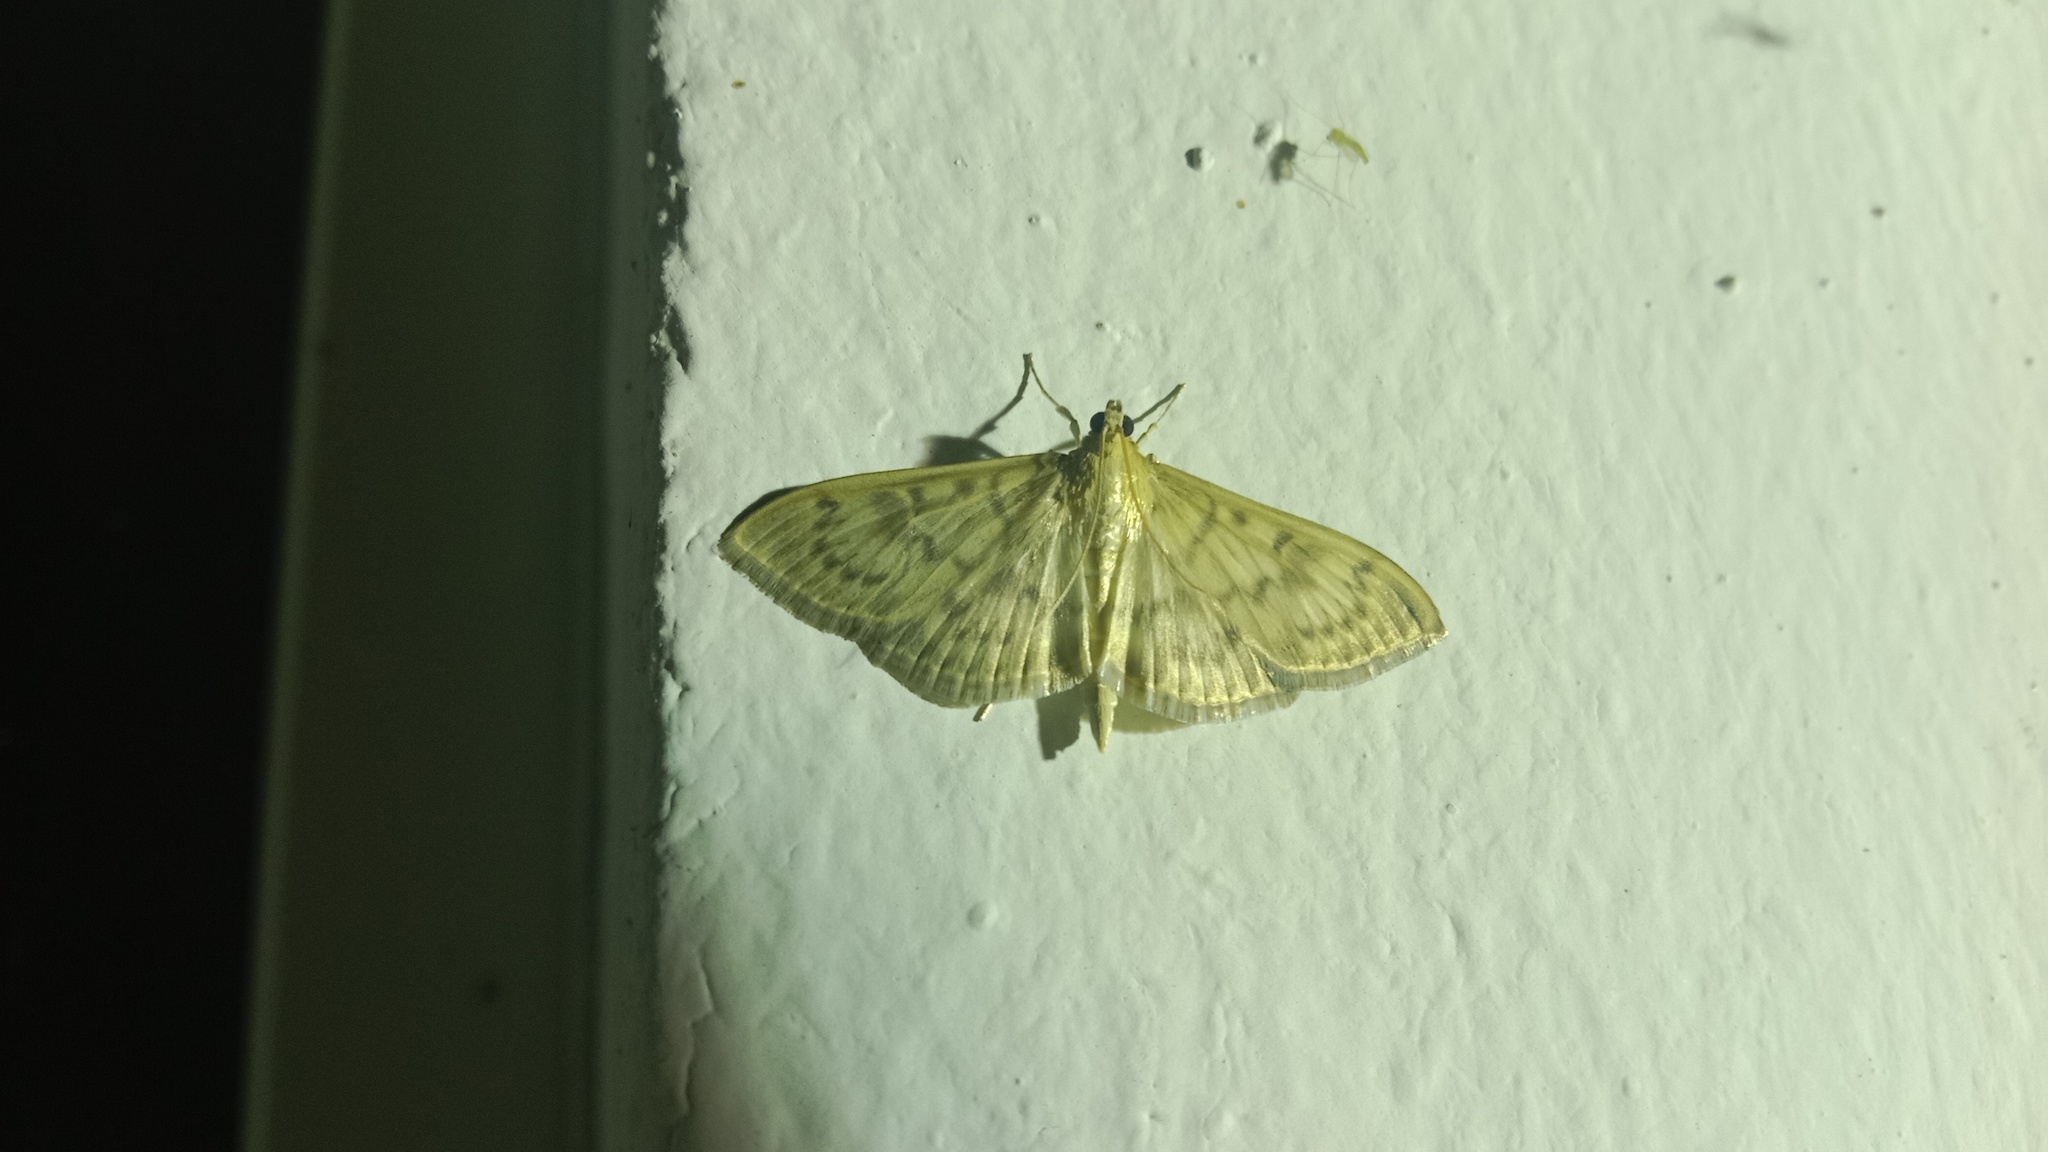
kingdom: Animalia
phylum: Arthropoda
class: Insecta
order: Lepidoptera
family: Crambidae
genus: Patania
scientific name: Patania ruralis
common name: Mother of pearl
